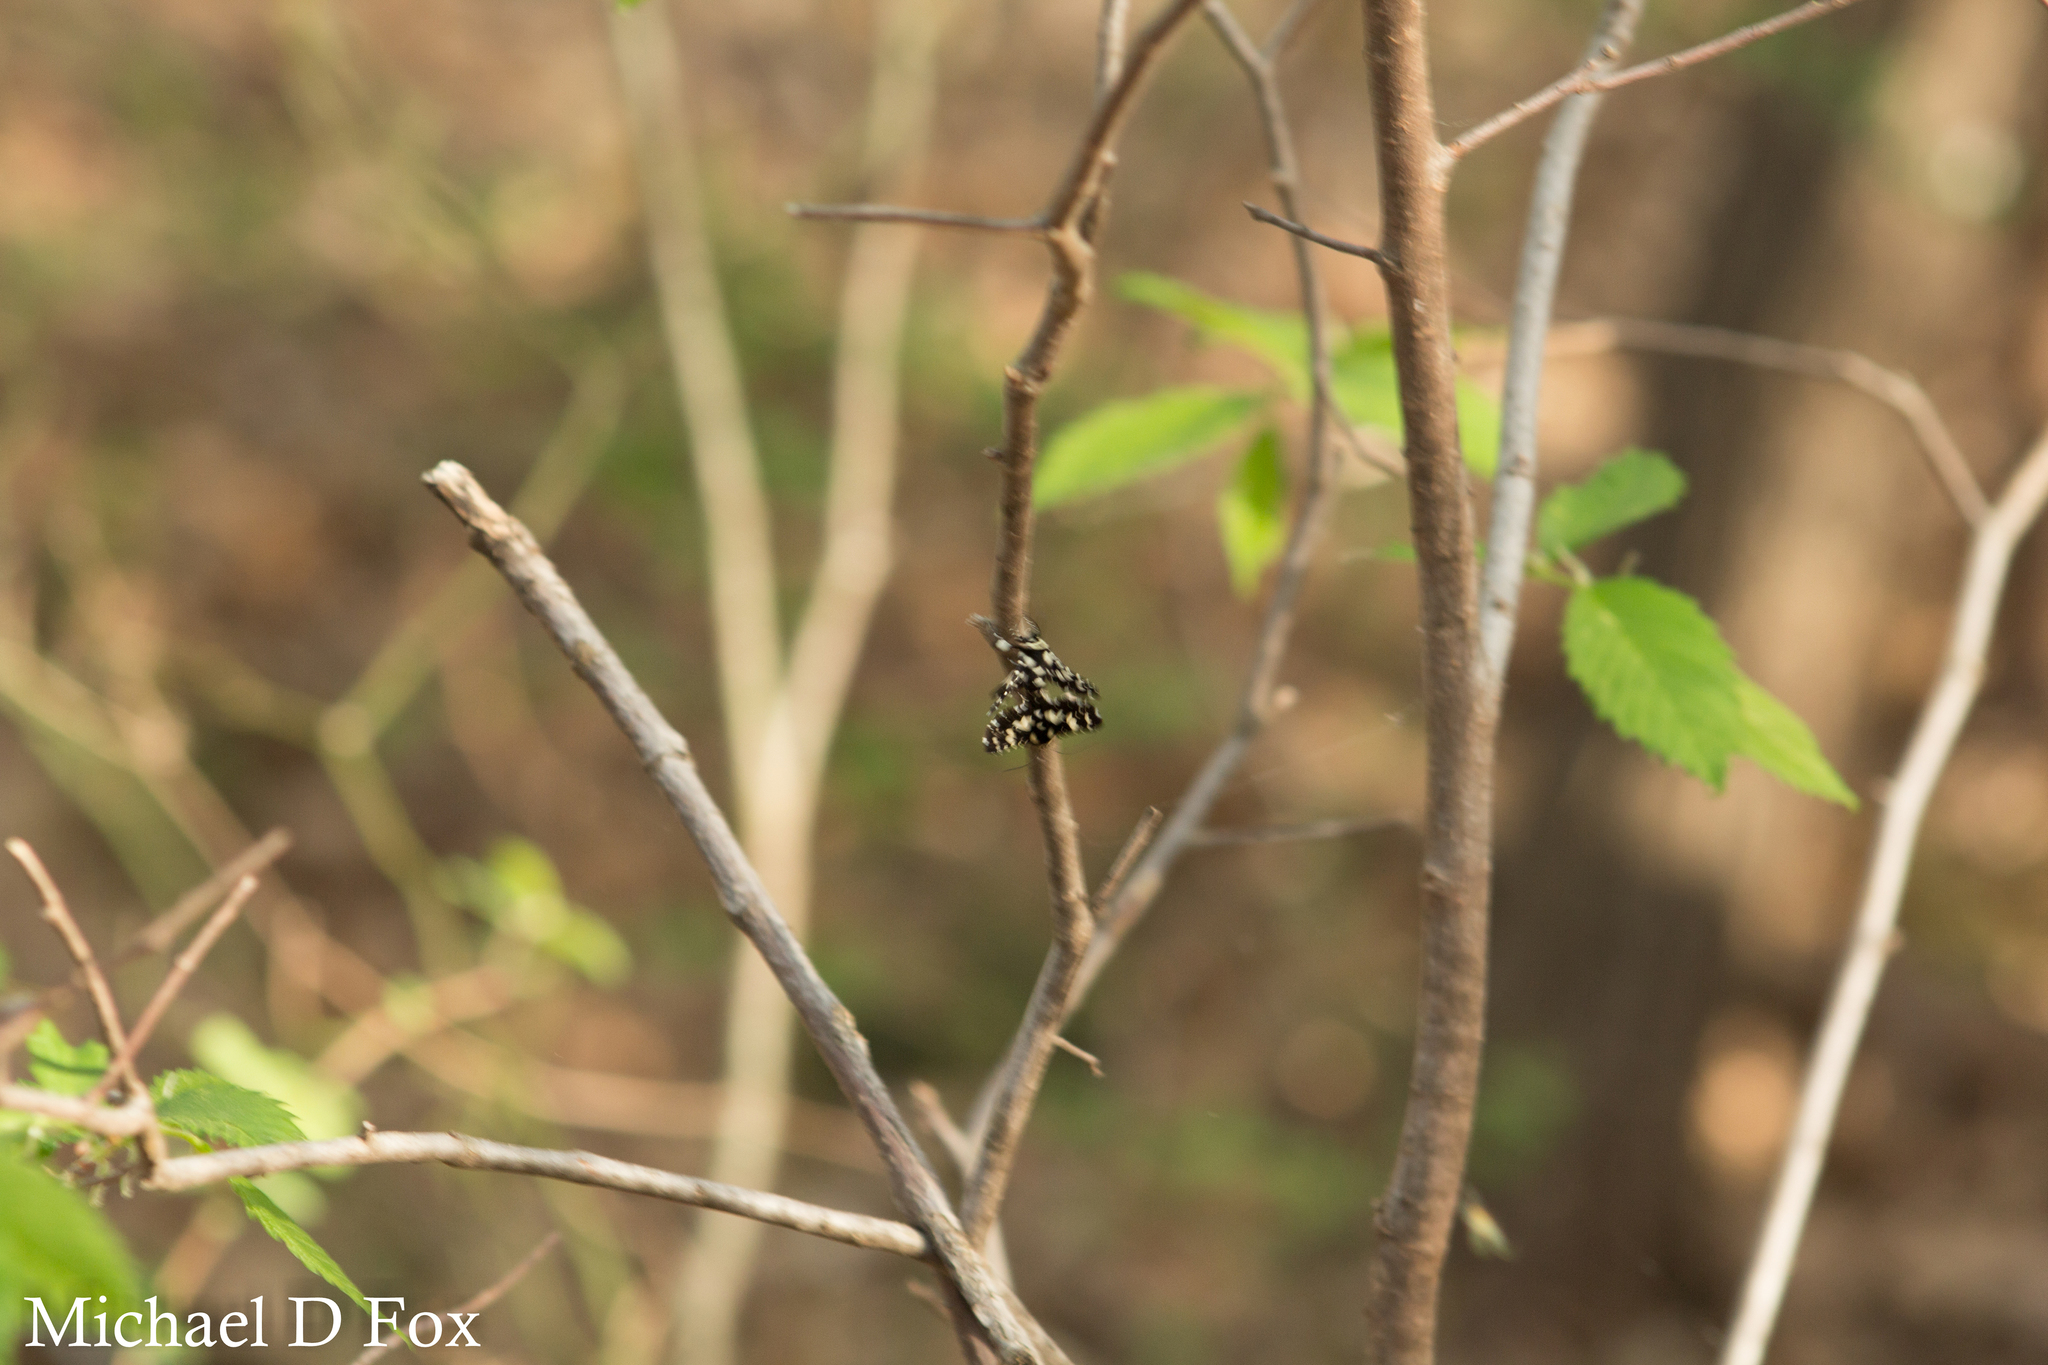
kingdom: Animalia
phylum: Arthropoda
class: Insecta
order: Lepidoptera
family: Thyrididae
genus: Pseudothyris
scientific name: Pseudothyris sepulchralis
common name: Mournful thyris moth
